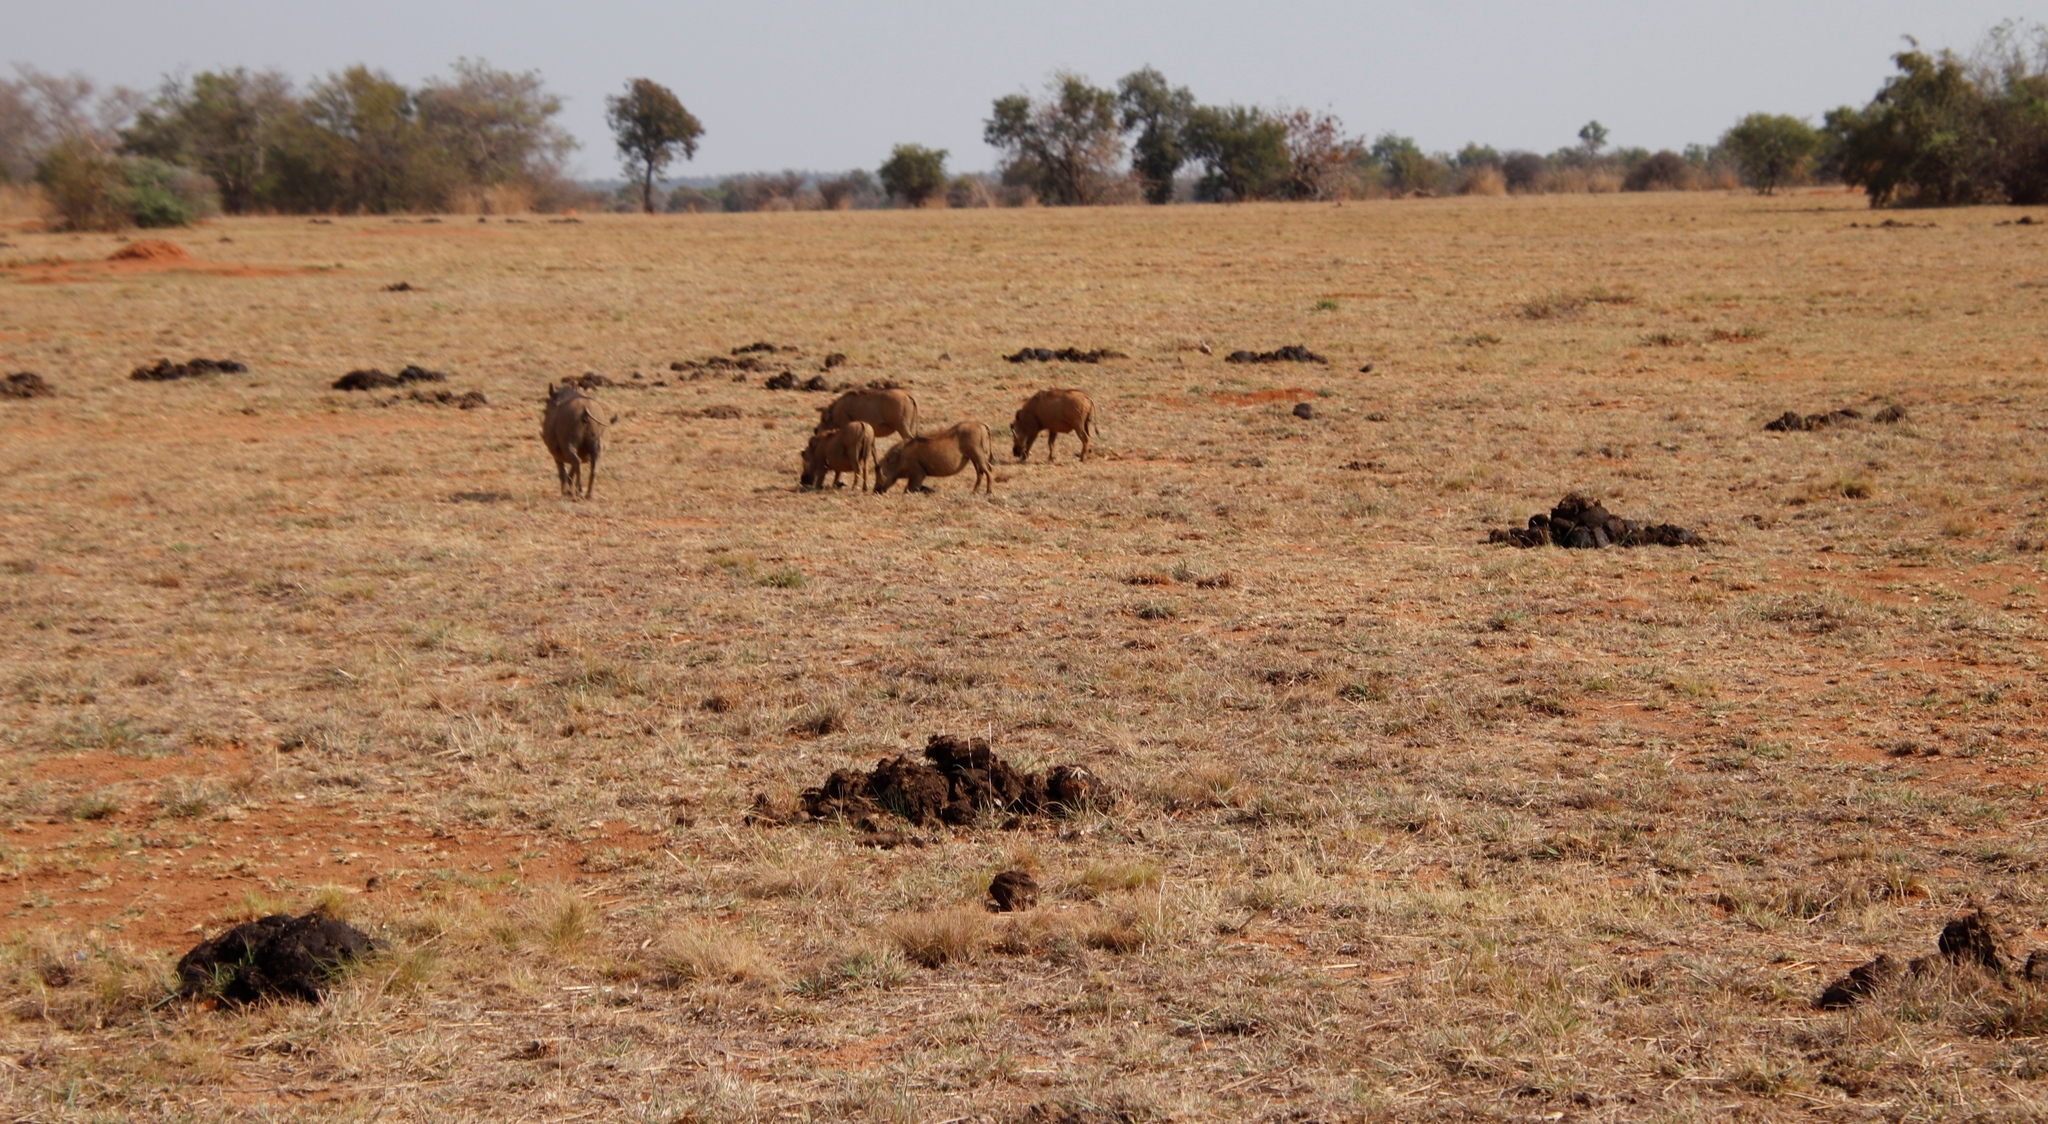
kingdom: Animalia
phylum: Chordata
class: Mammalia
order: Perissodactyla
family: Rhinocerotidae
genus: Ceratotherium
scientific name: Ceratotherium simum
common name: White rhinoceros
